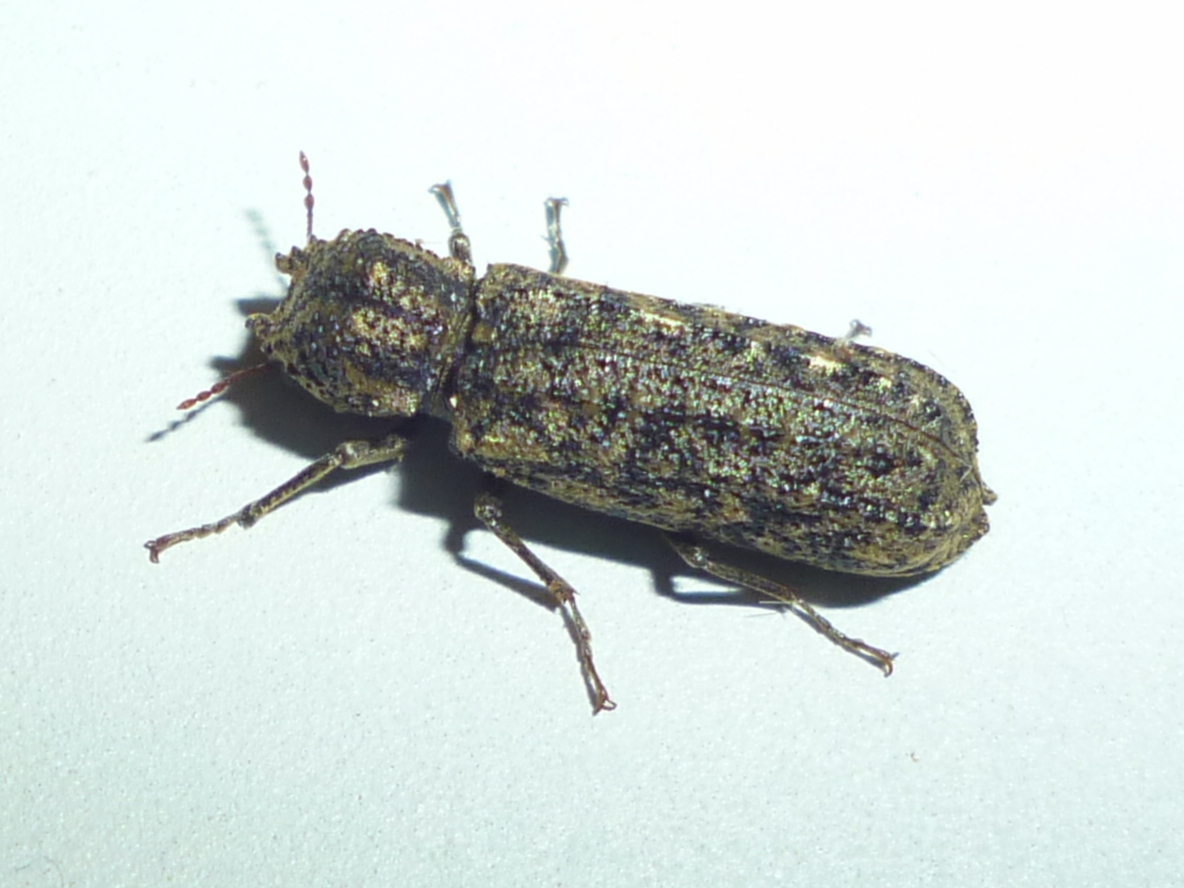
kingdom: Animalia
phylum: Arthropoda
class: Insecta
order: Coleoptera
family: Bostrichidae
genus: Lichenophanes
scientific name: Lichenophanes bicornis
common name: Two-horned powder-post beetle
